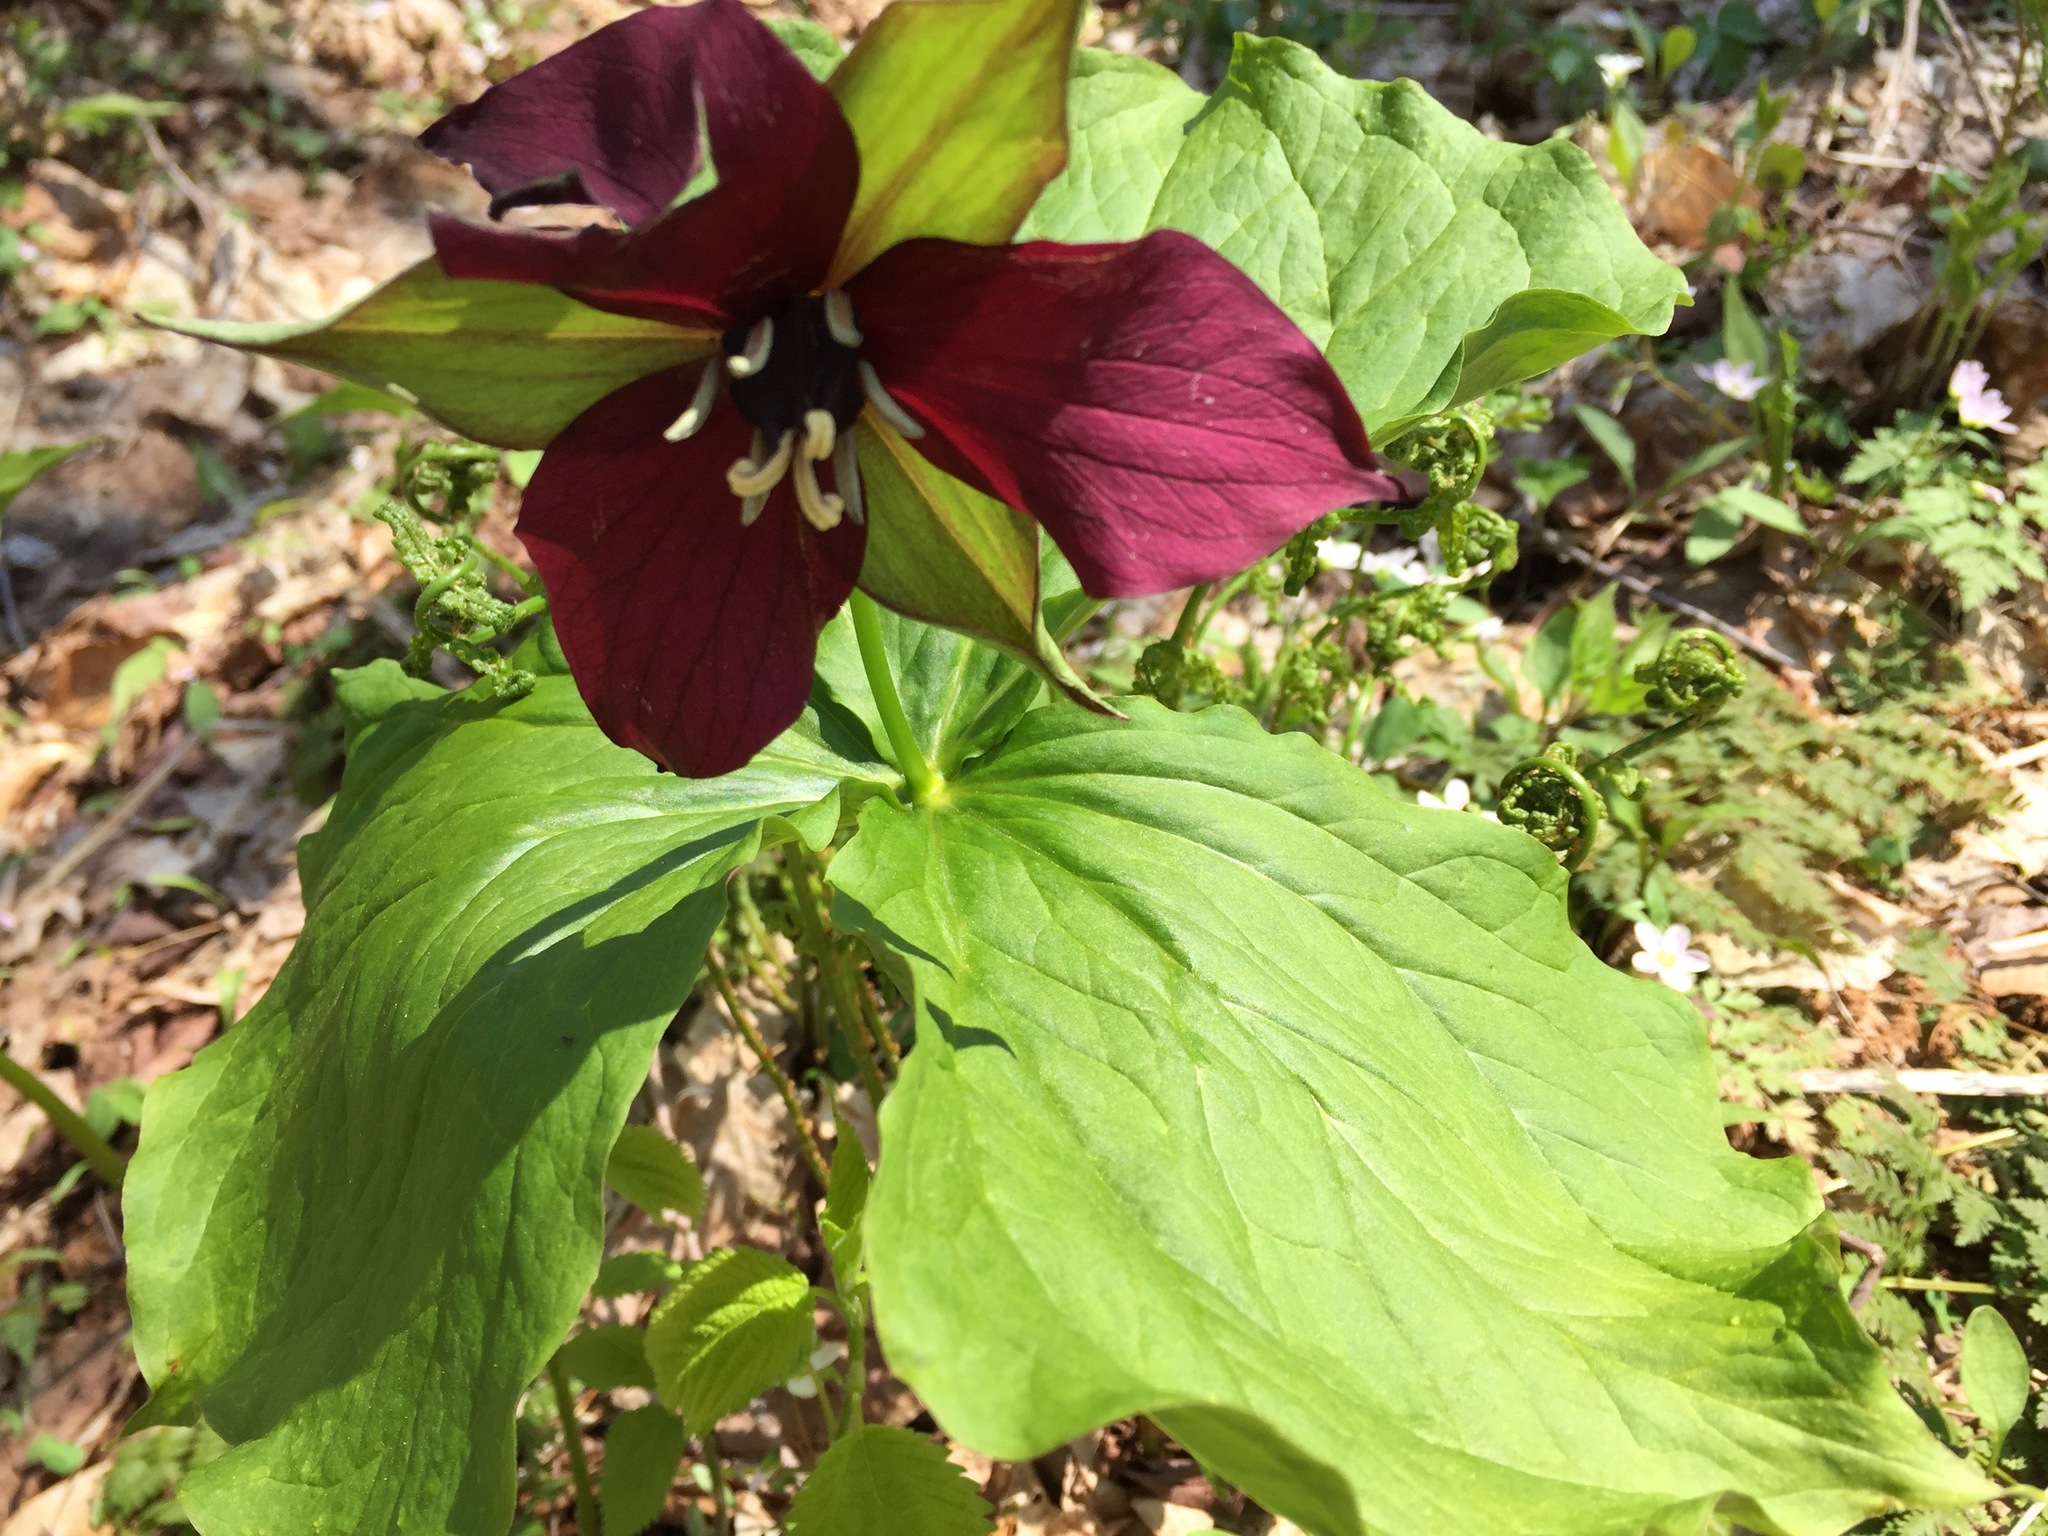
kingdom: Plantae
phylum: Tracheophyta
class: Liliopsida
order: Liliales
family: Melanthiaceae
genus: Trillium
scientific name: Trillium erectum
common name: Purple trillium
